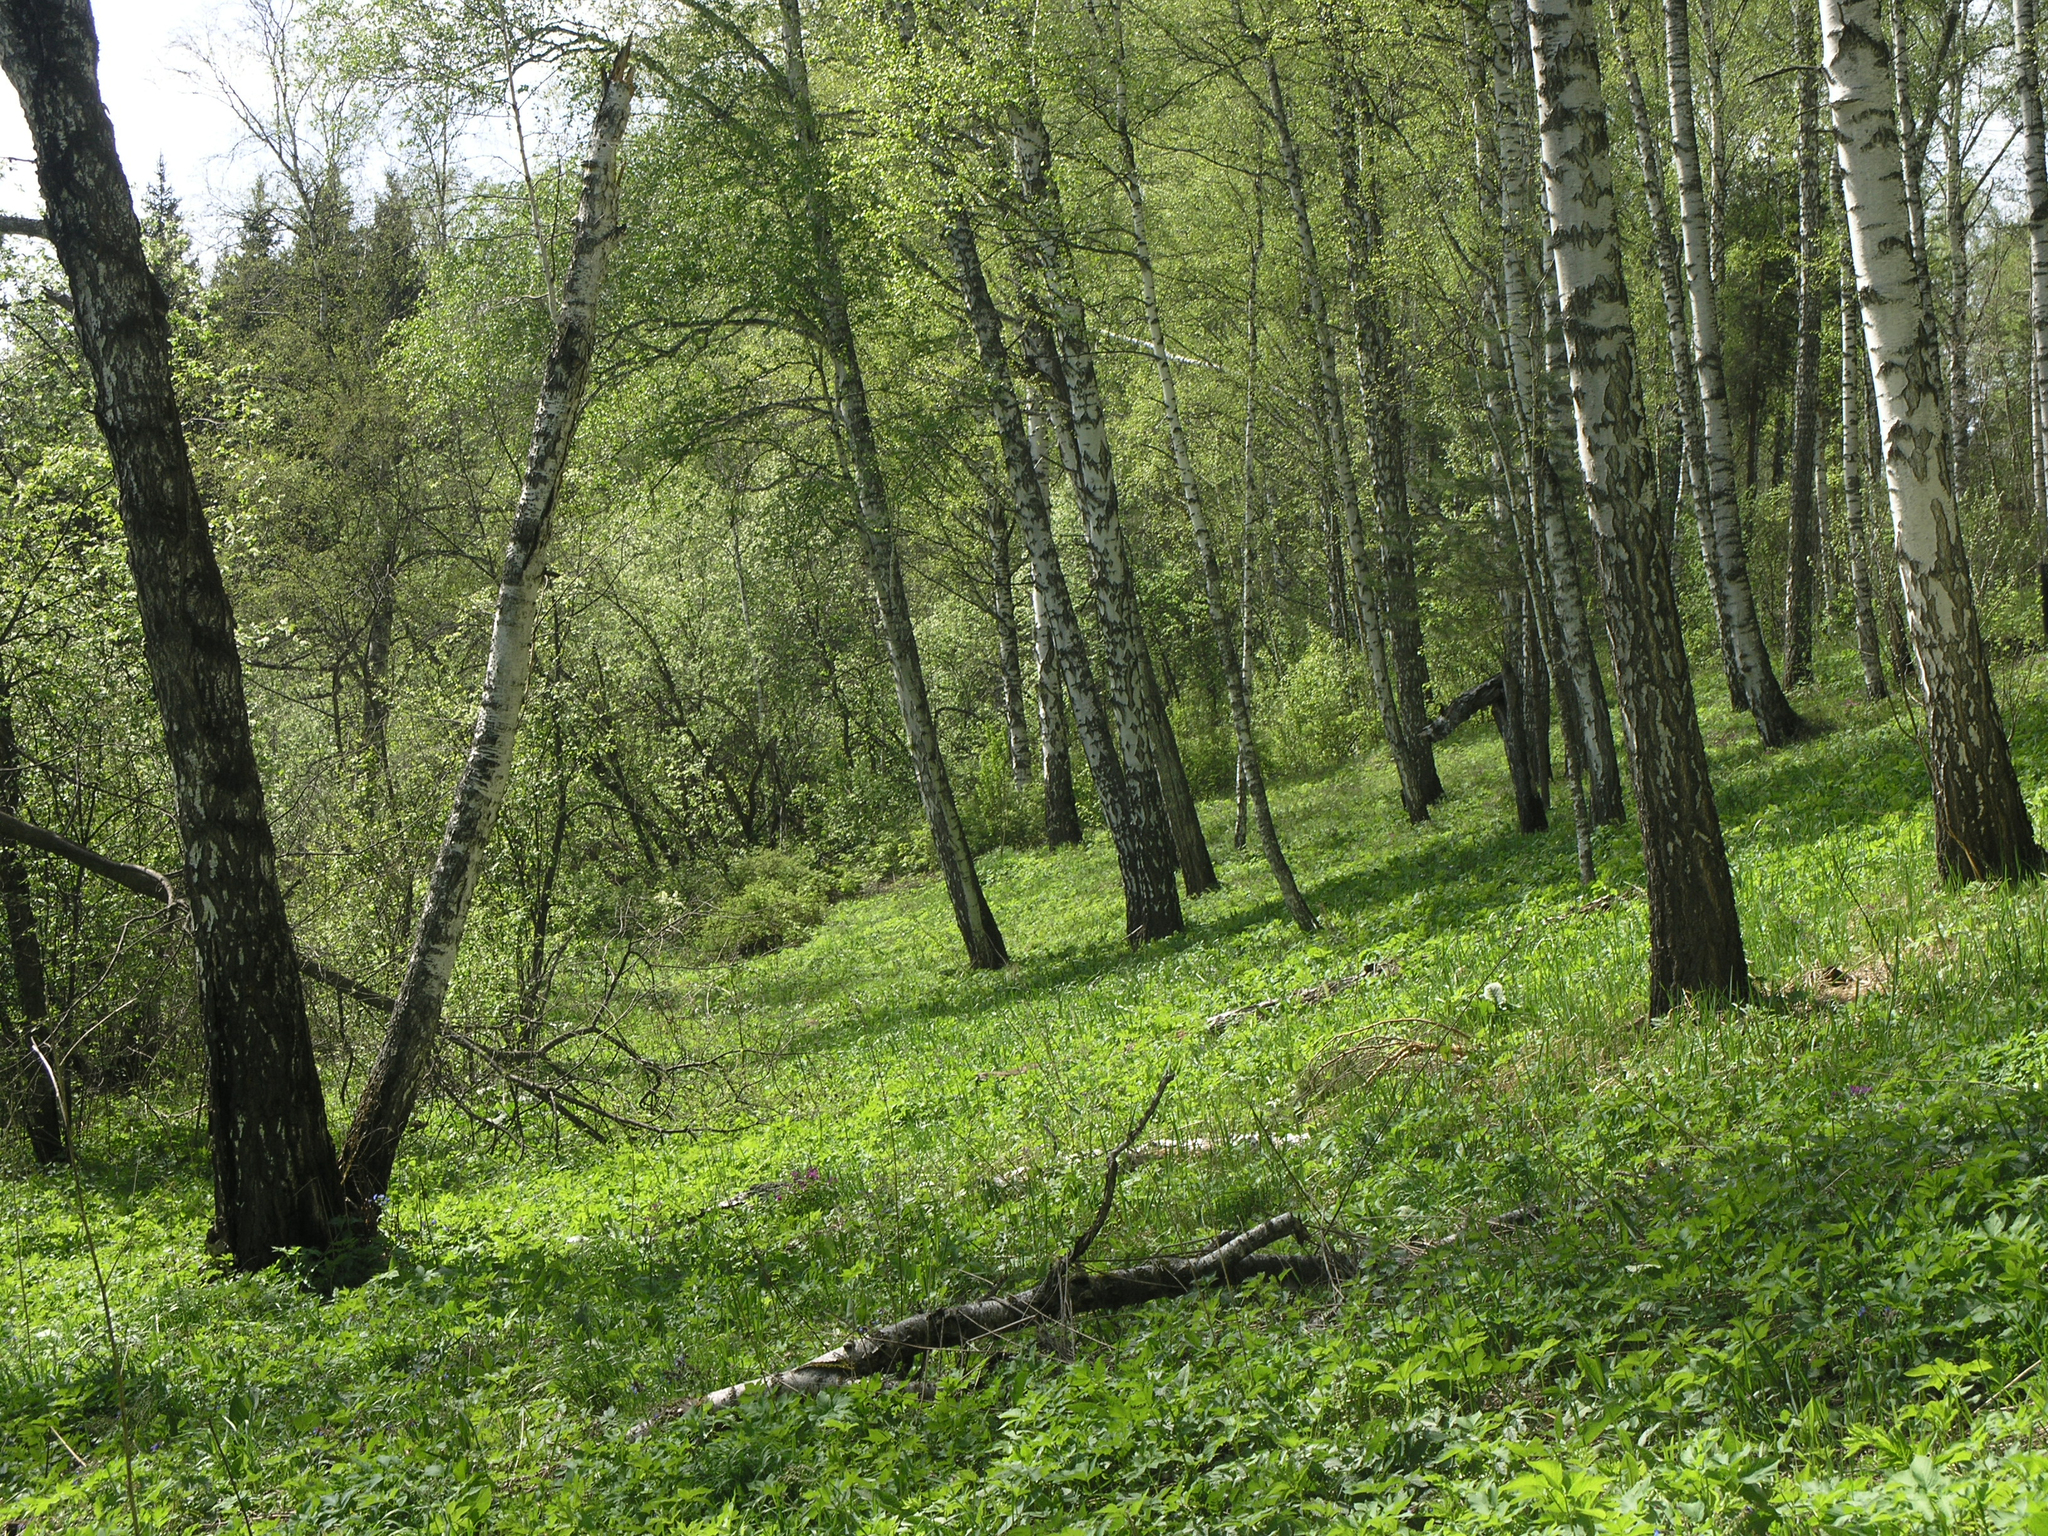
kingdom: Plantae
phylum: Tracheophyta
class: Magnoliopsida
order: Fagales
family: Betulaceae
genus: Betula
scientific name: Betula pendula
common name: Silver birch
